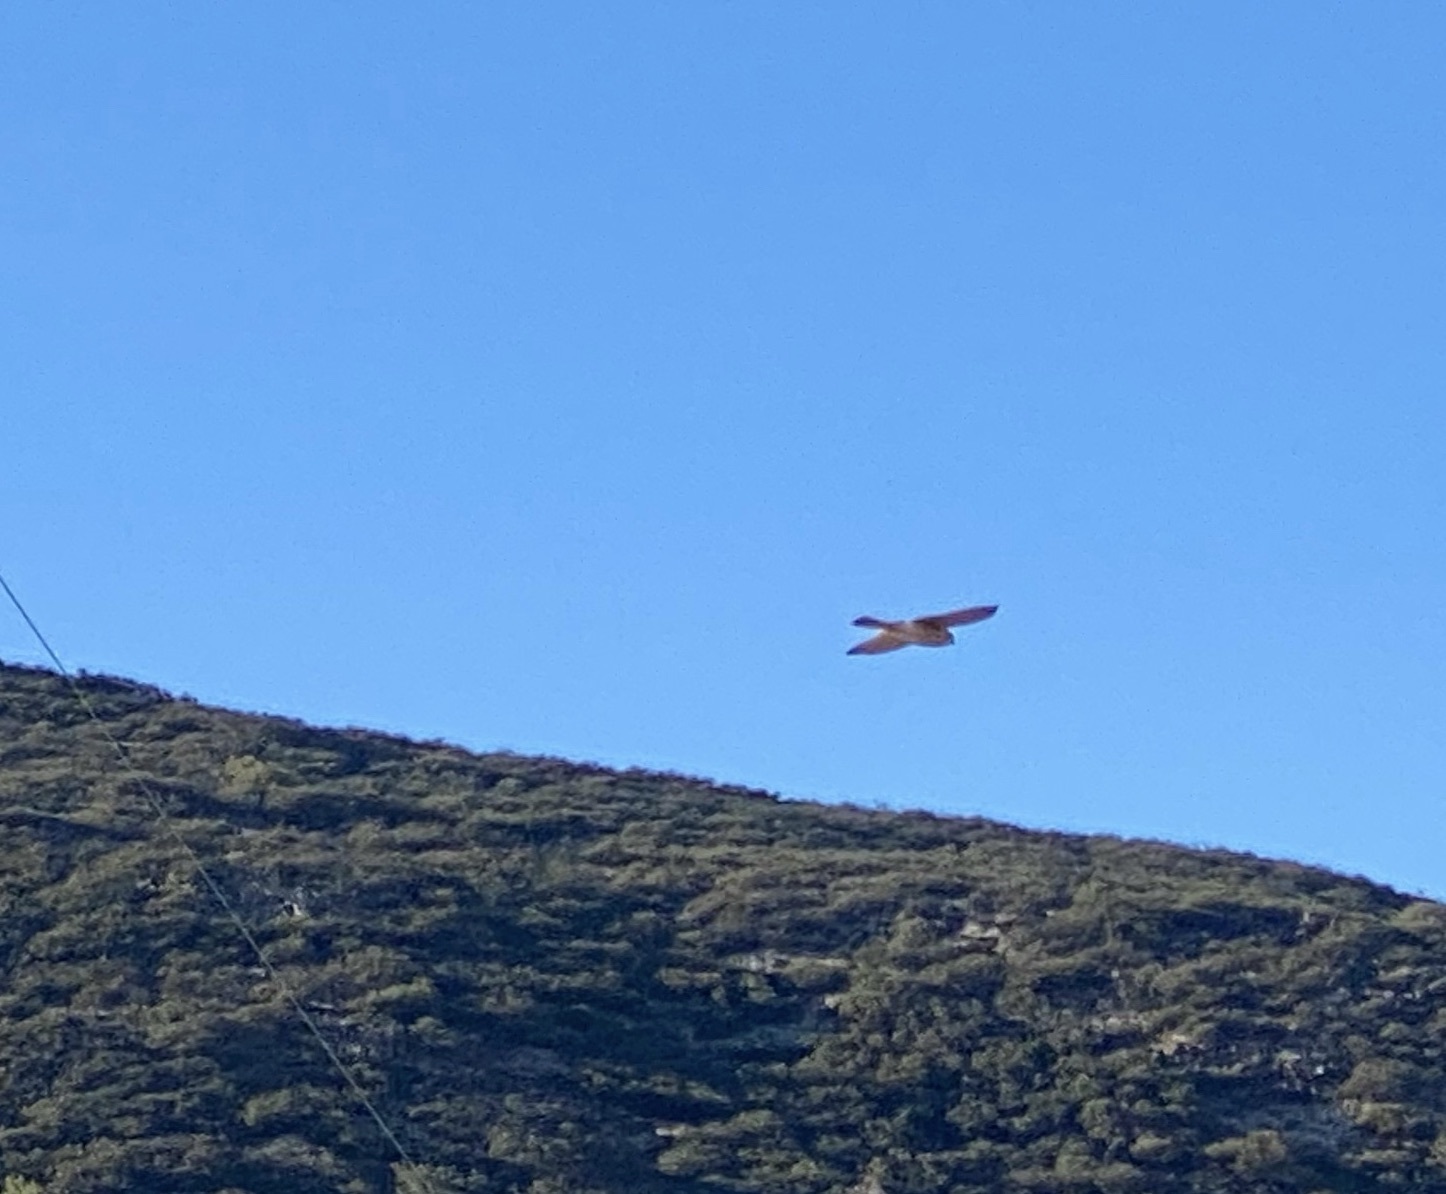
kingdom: Animalia
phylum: Chordata
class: Aves
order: Falconiformes
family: Falconidae
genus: Falco
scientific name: Falco sparverius
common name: American kestrel
